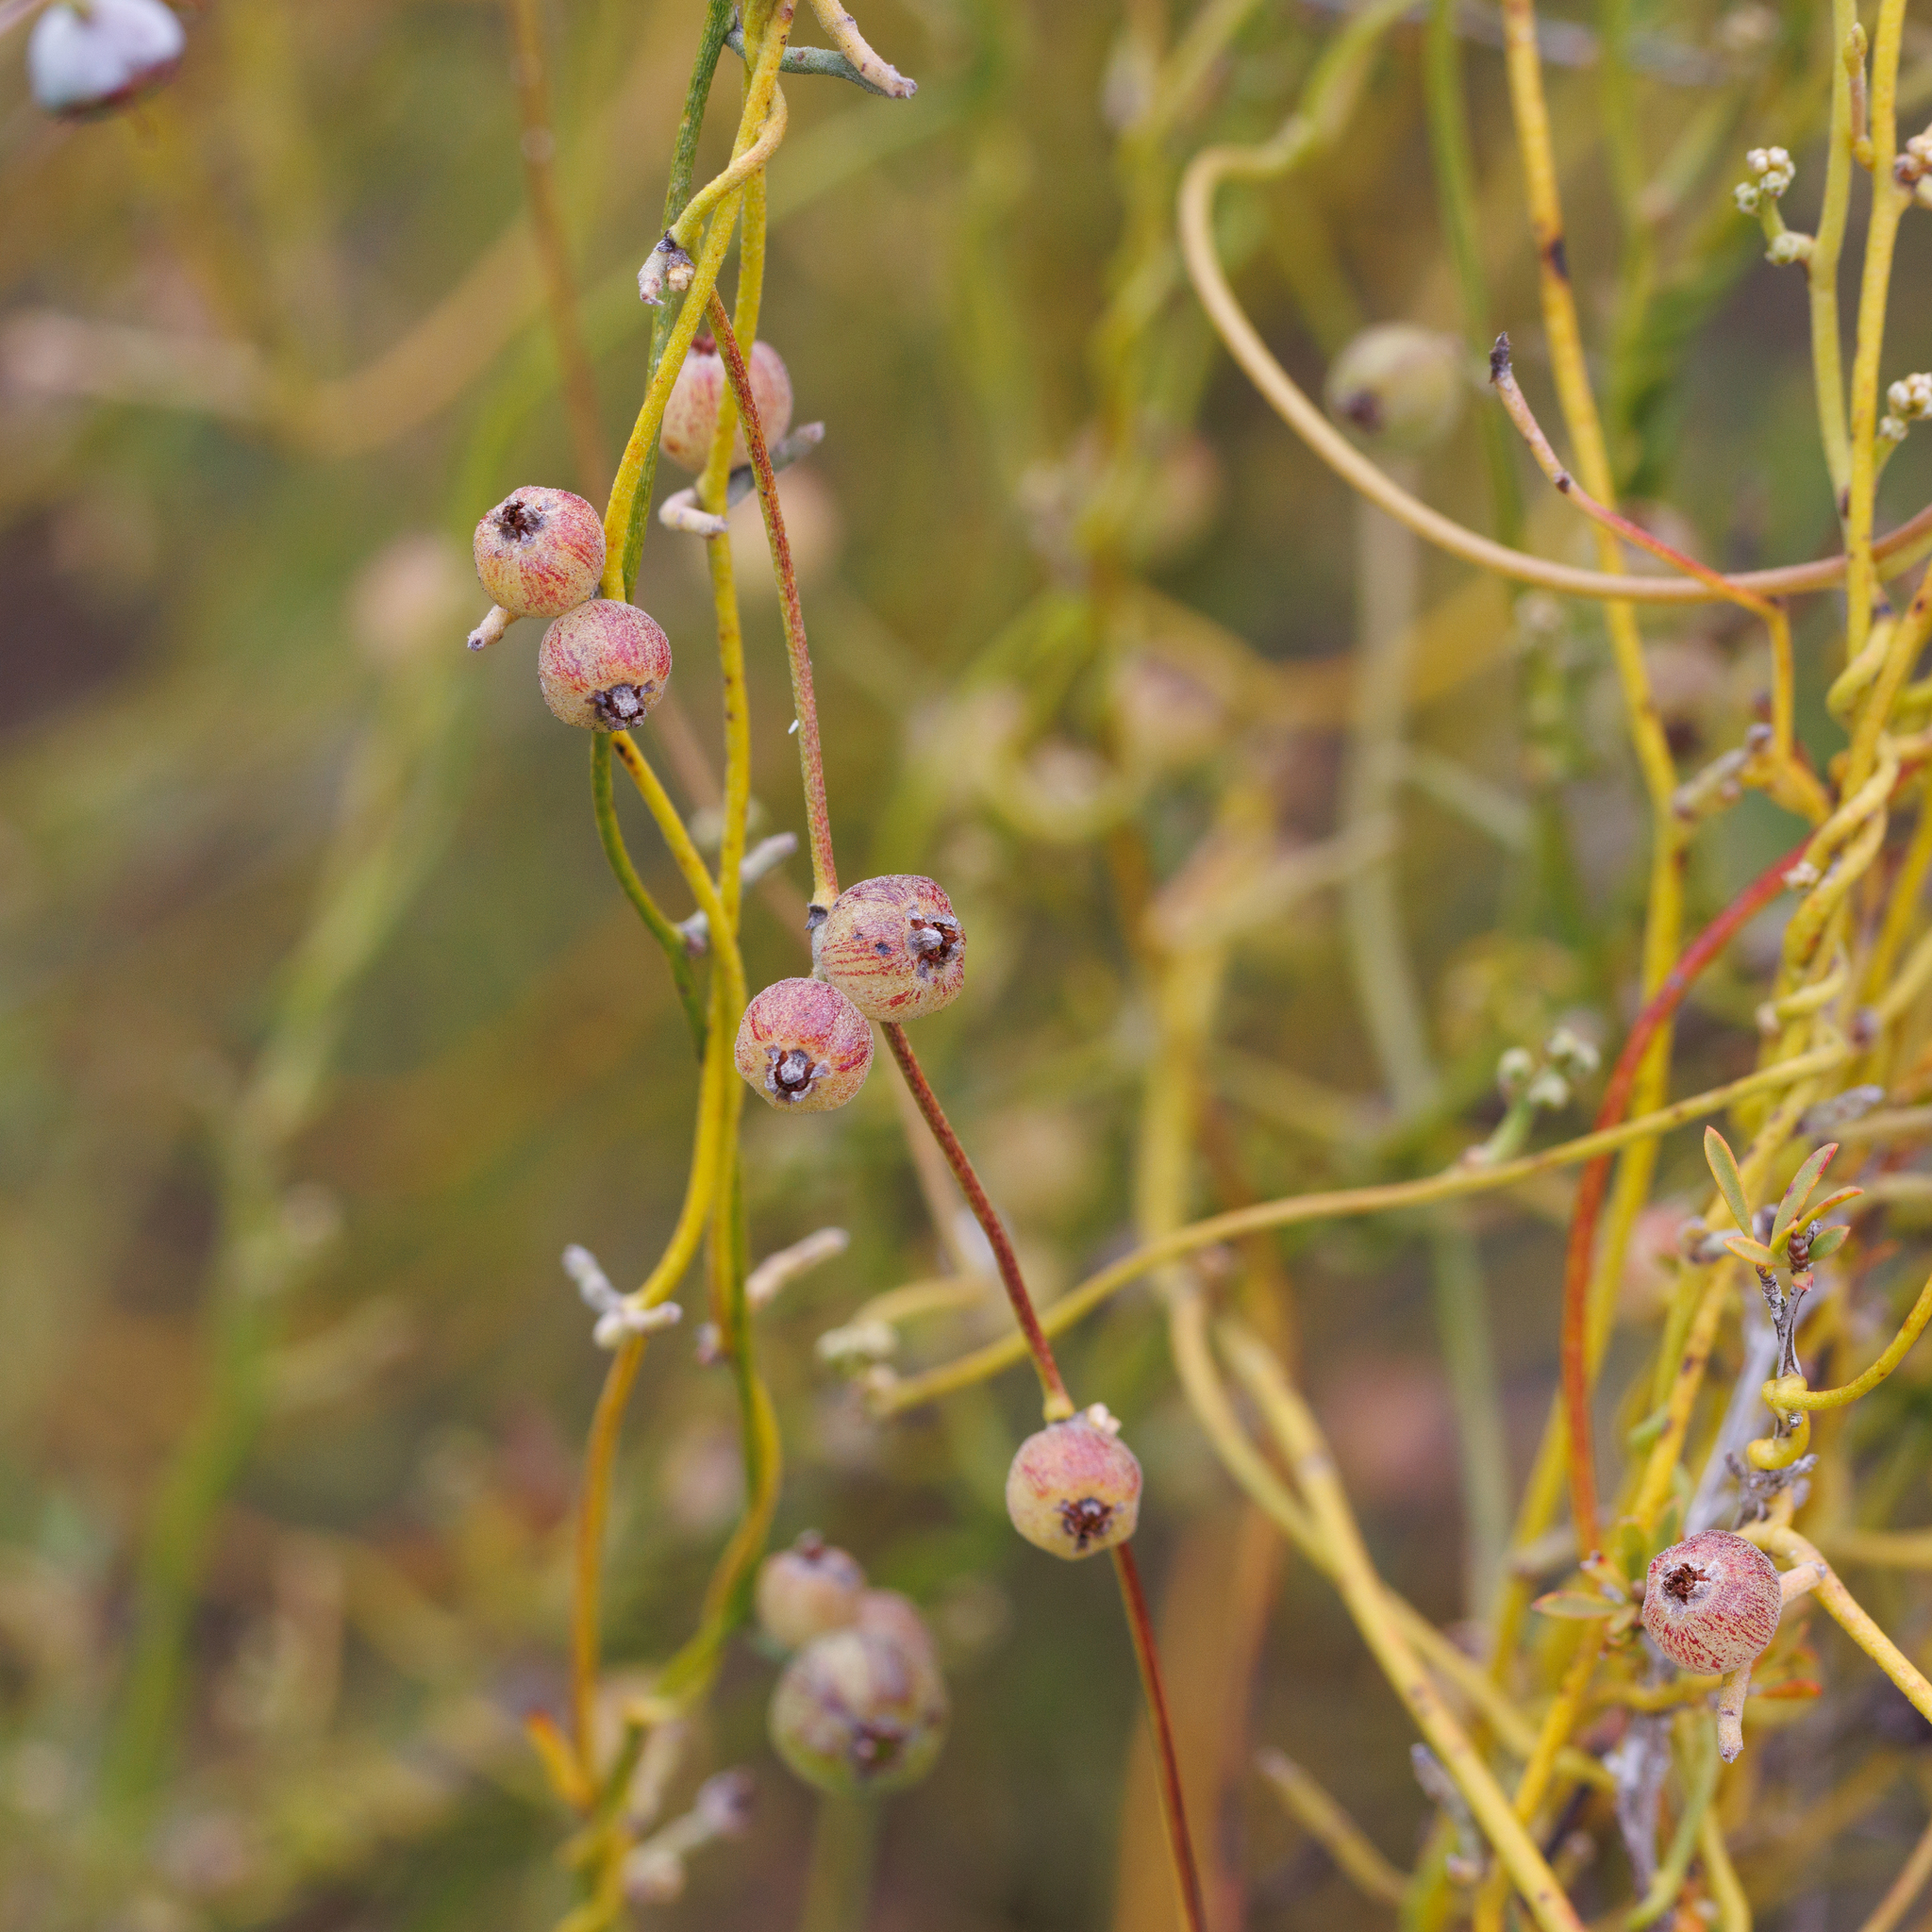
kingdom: Plantae
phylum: Tracheophyta
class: Magnoliopsida
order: Laurales
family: Lauraceae
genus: Cassytha
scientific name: Cassytha pubescens
